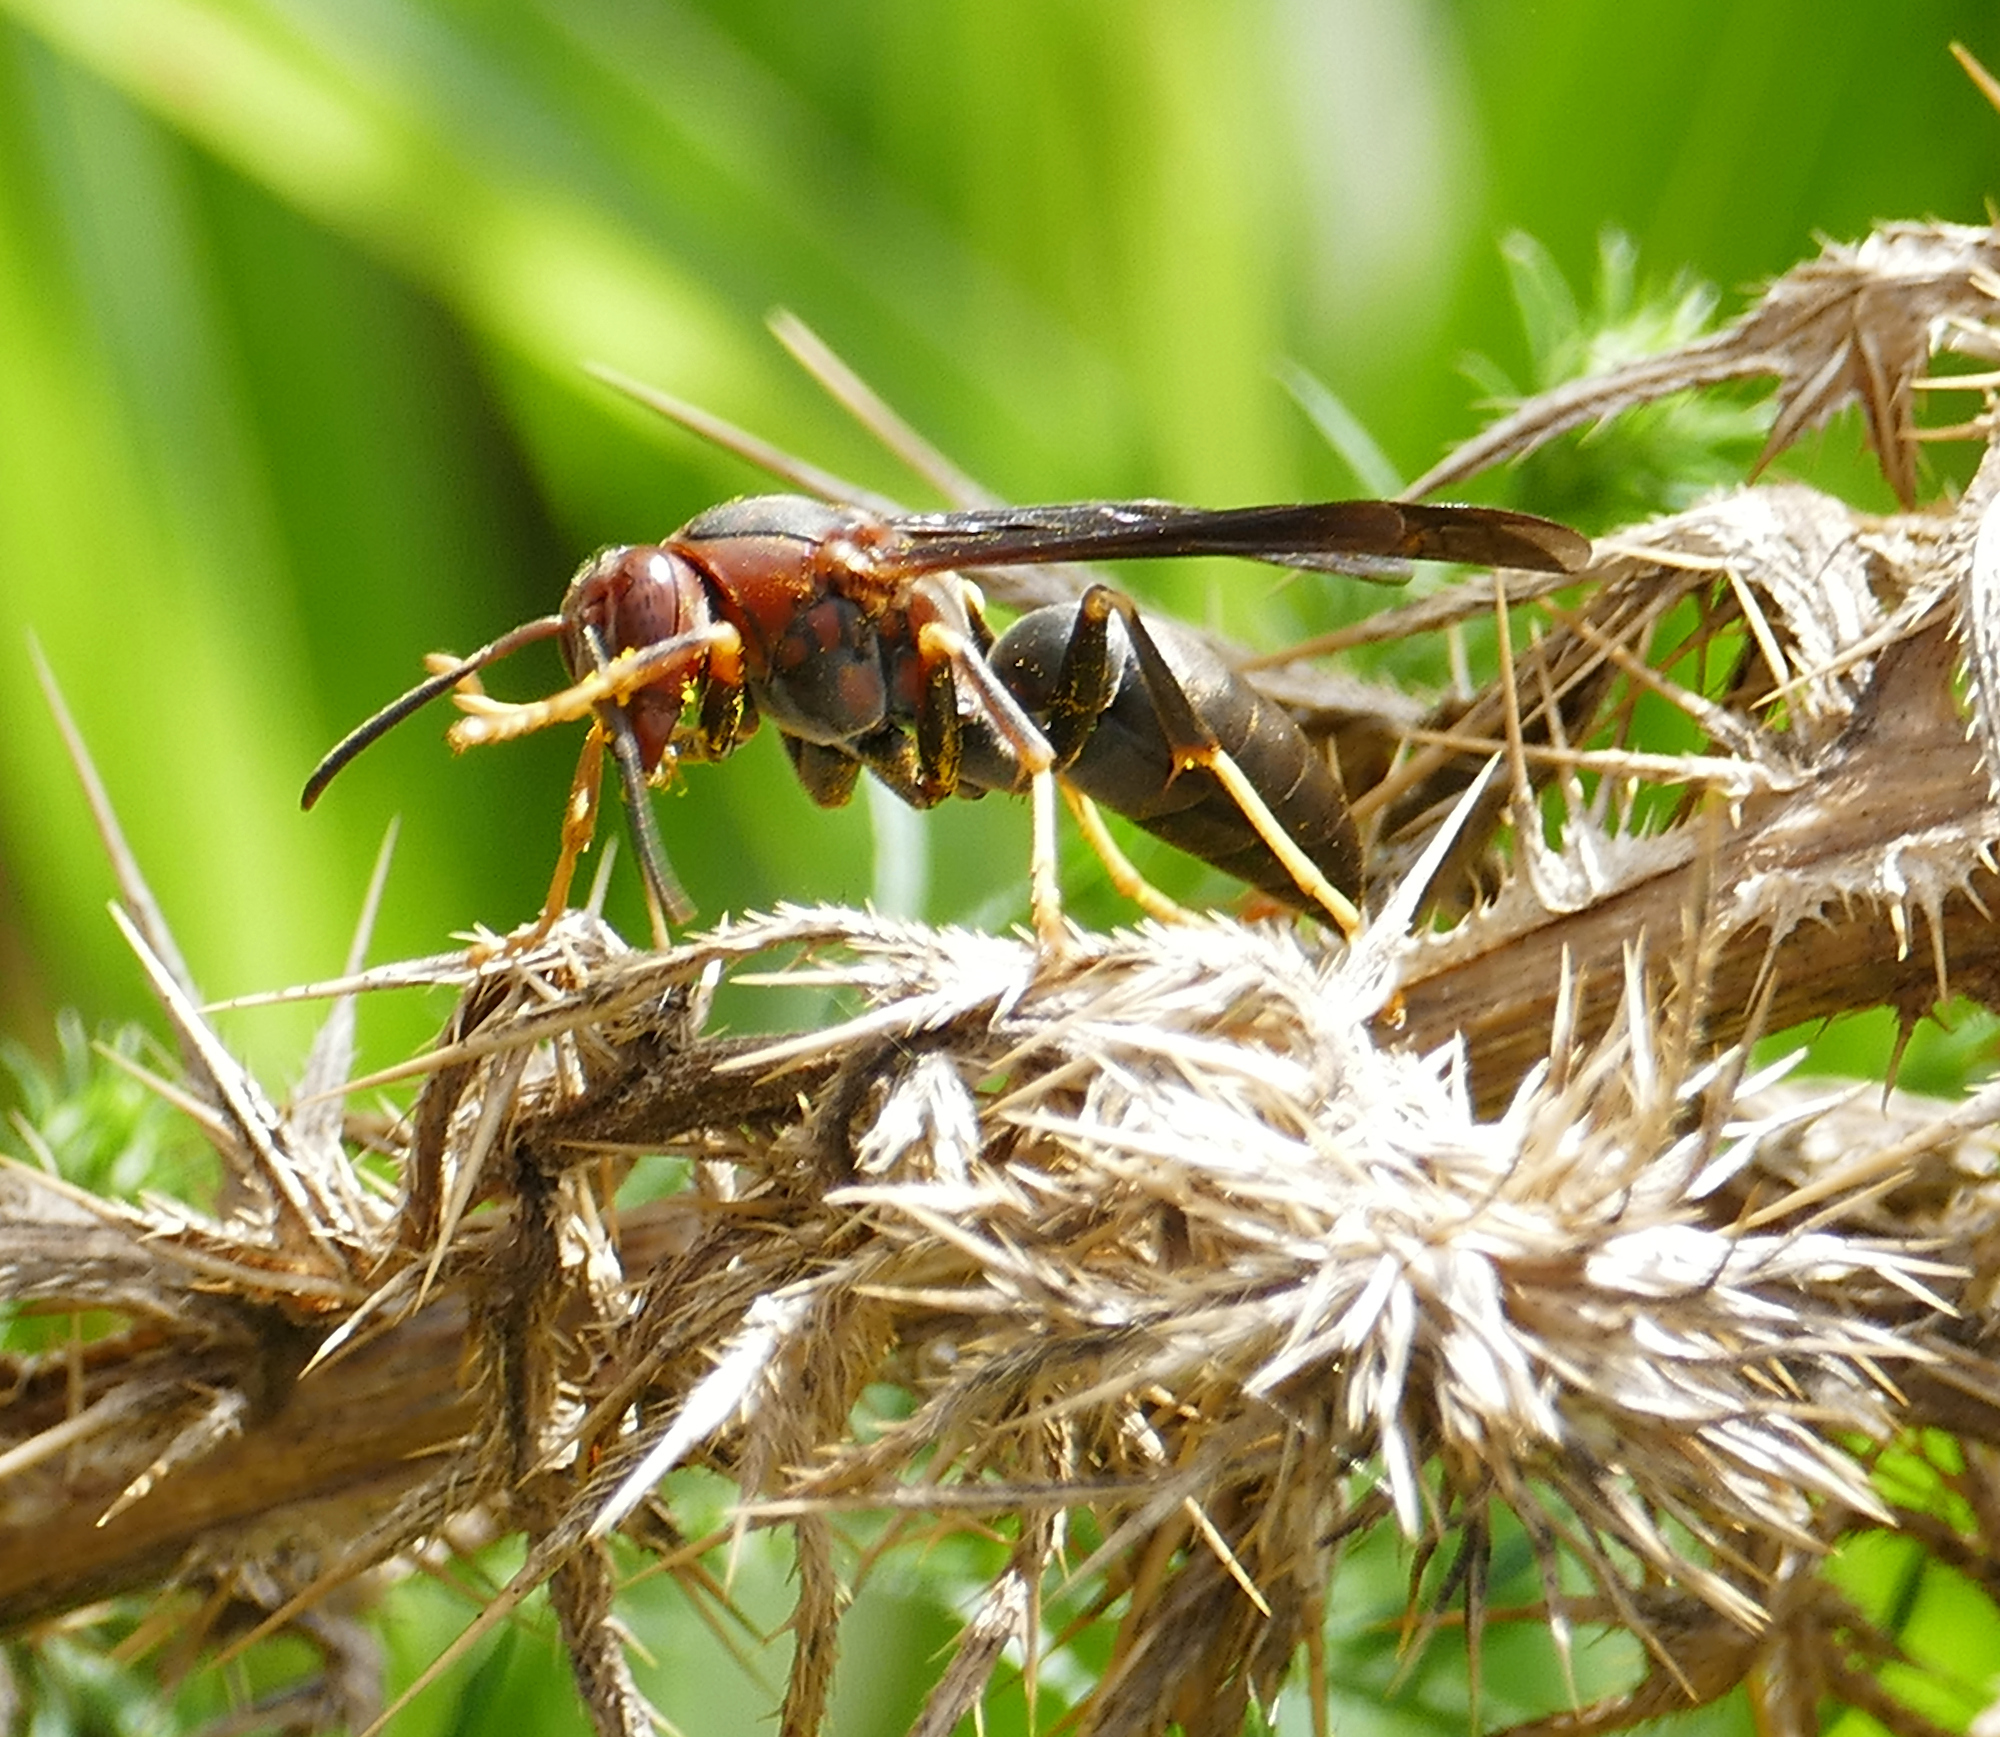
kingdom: Animalia
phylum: Arthropoda
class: Insecta
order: Hymenoptera
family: Eumenidae
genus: Polistes
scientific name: Polistes metricus
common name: Metric paper wasp
